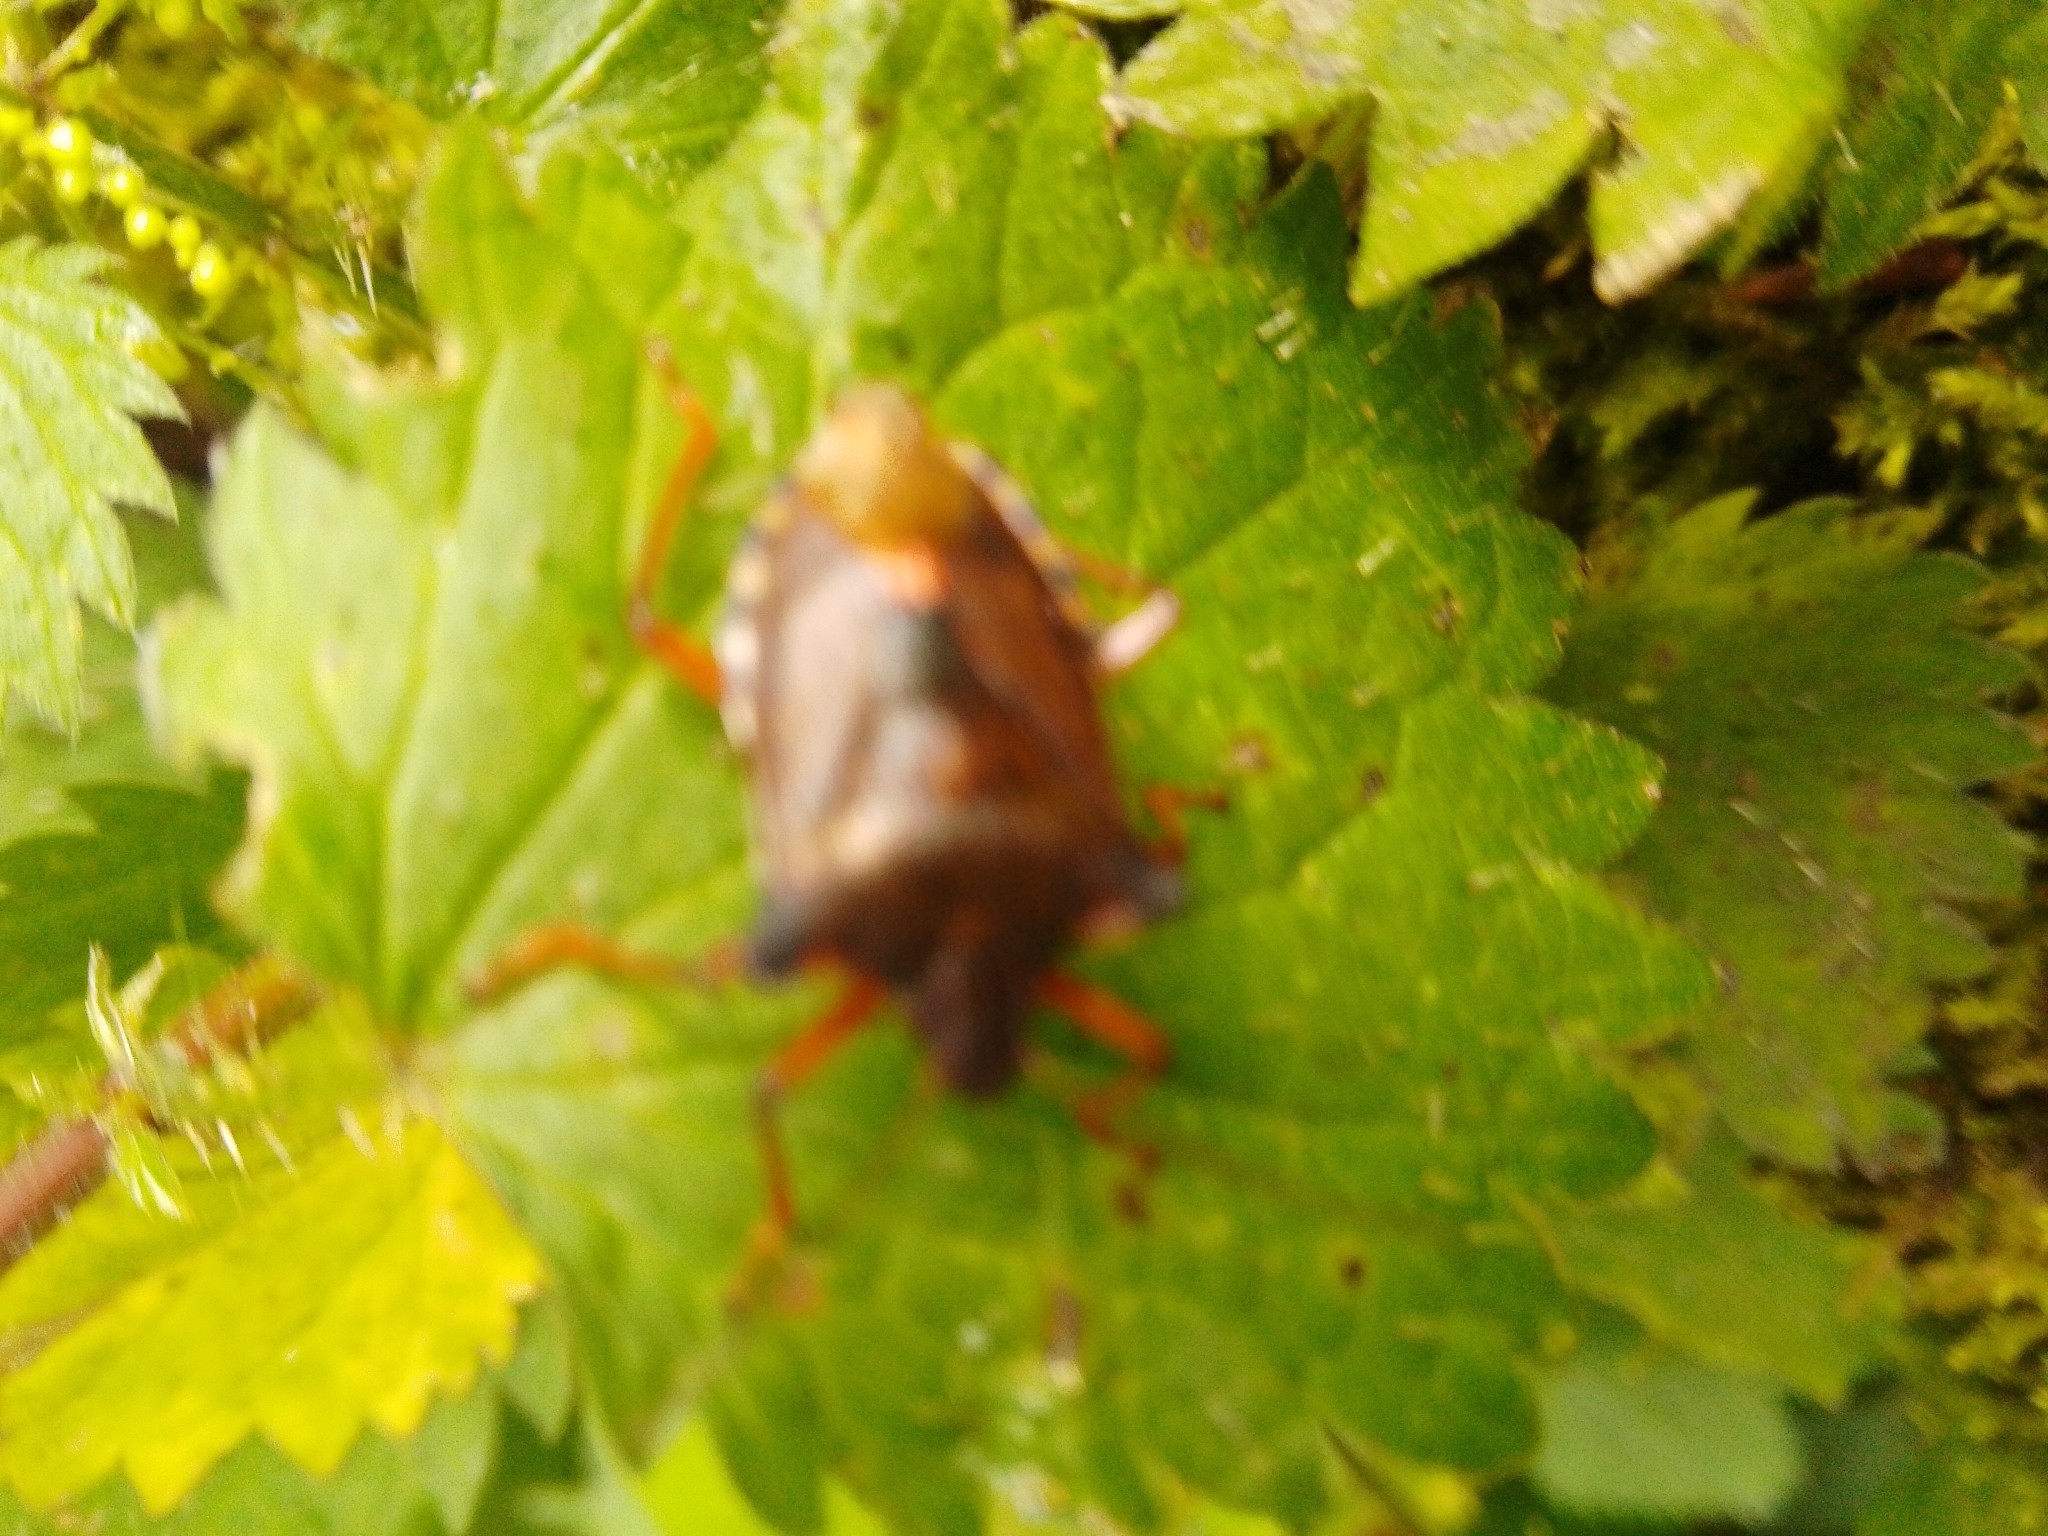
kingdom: Animalia
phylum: Arthropoda
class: Insecta
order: Hemiptera
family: Pentatomidae
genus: Pentatoma
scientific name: Pentatoma rufipes
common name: Forest bug
